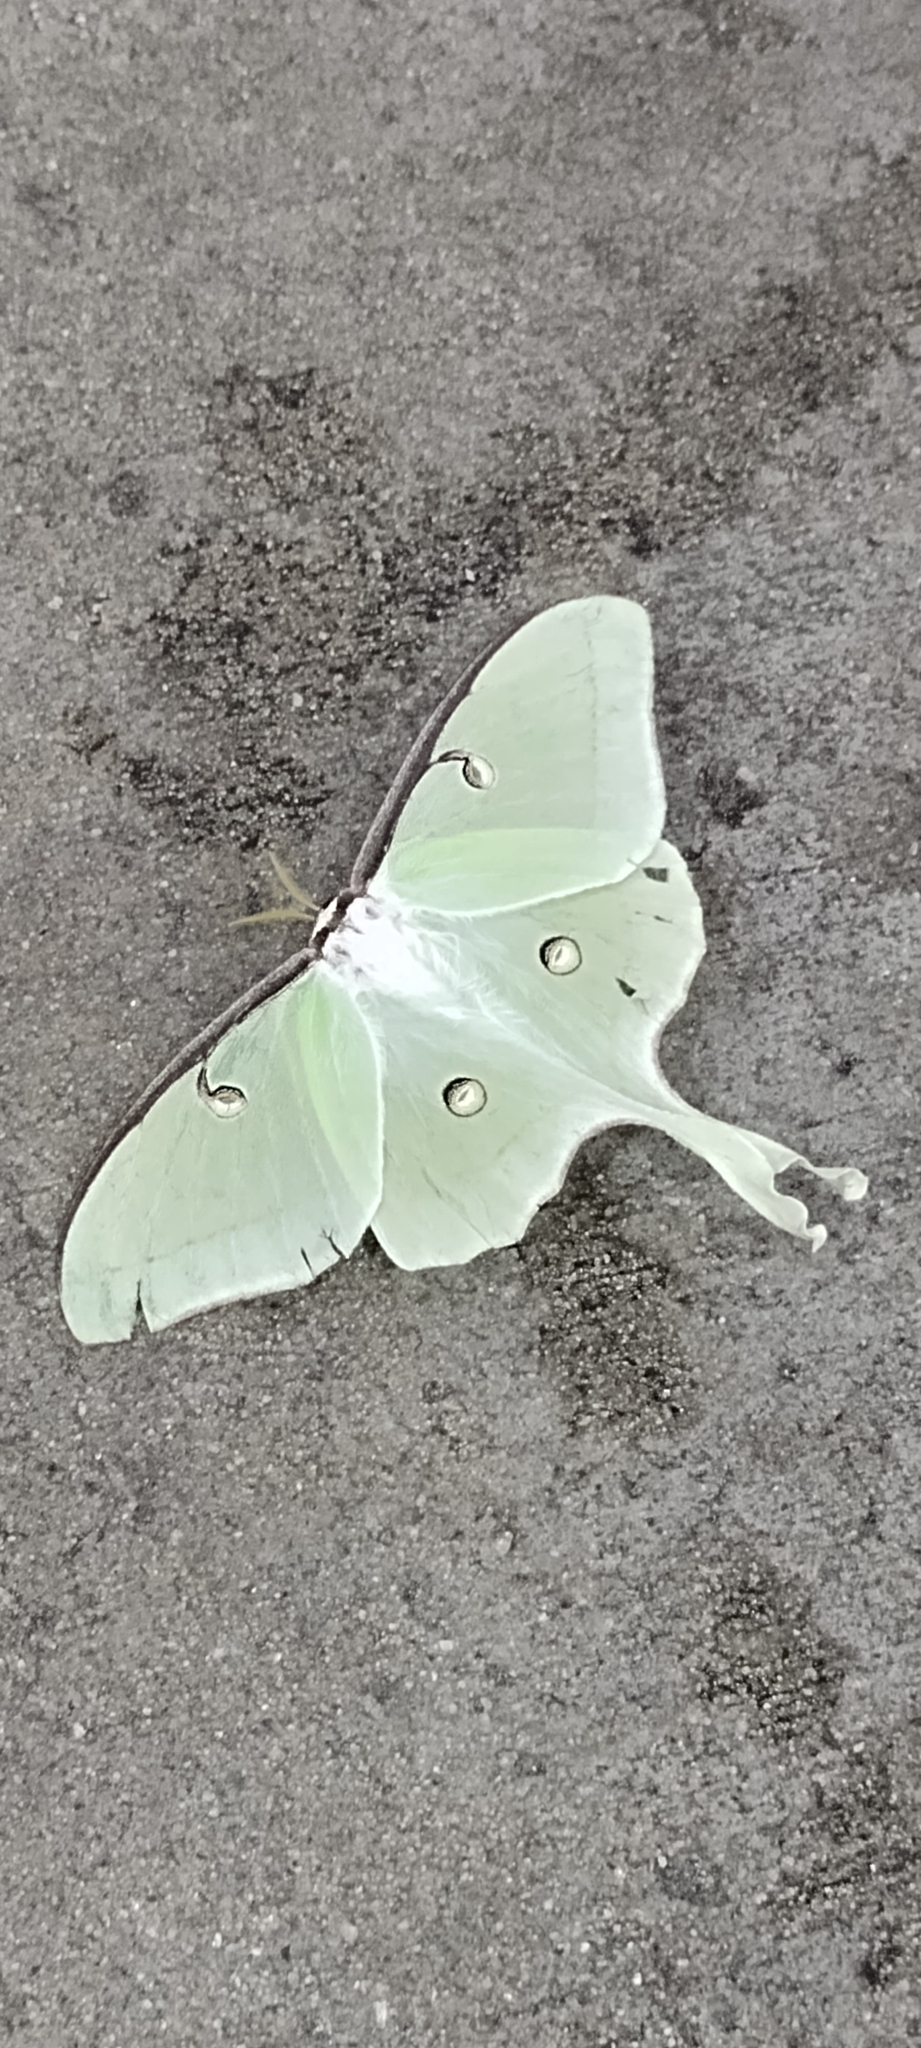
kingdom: Animalia
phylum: Arthropoda
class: Insecta
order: Lepidoptera
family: Saturniidae
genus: Actias
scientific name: Actias luna
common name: Luna moth
